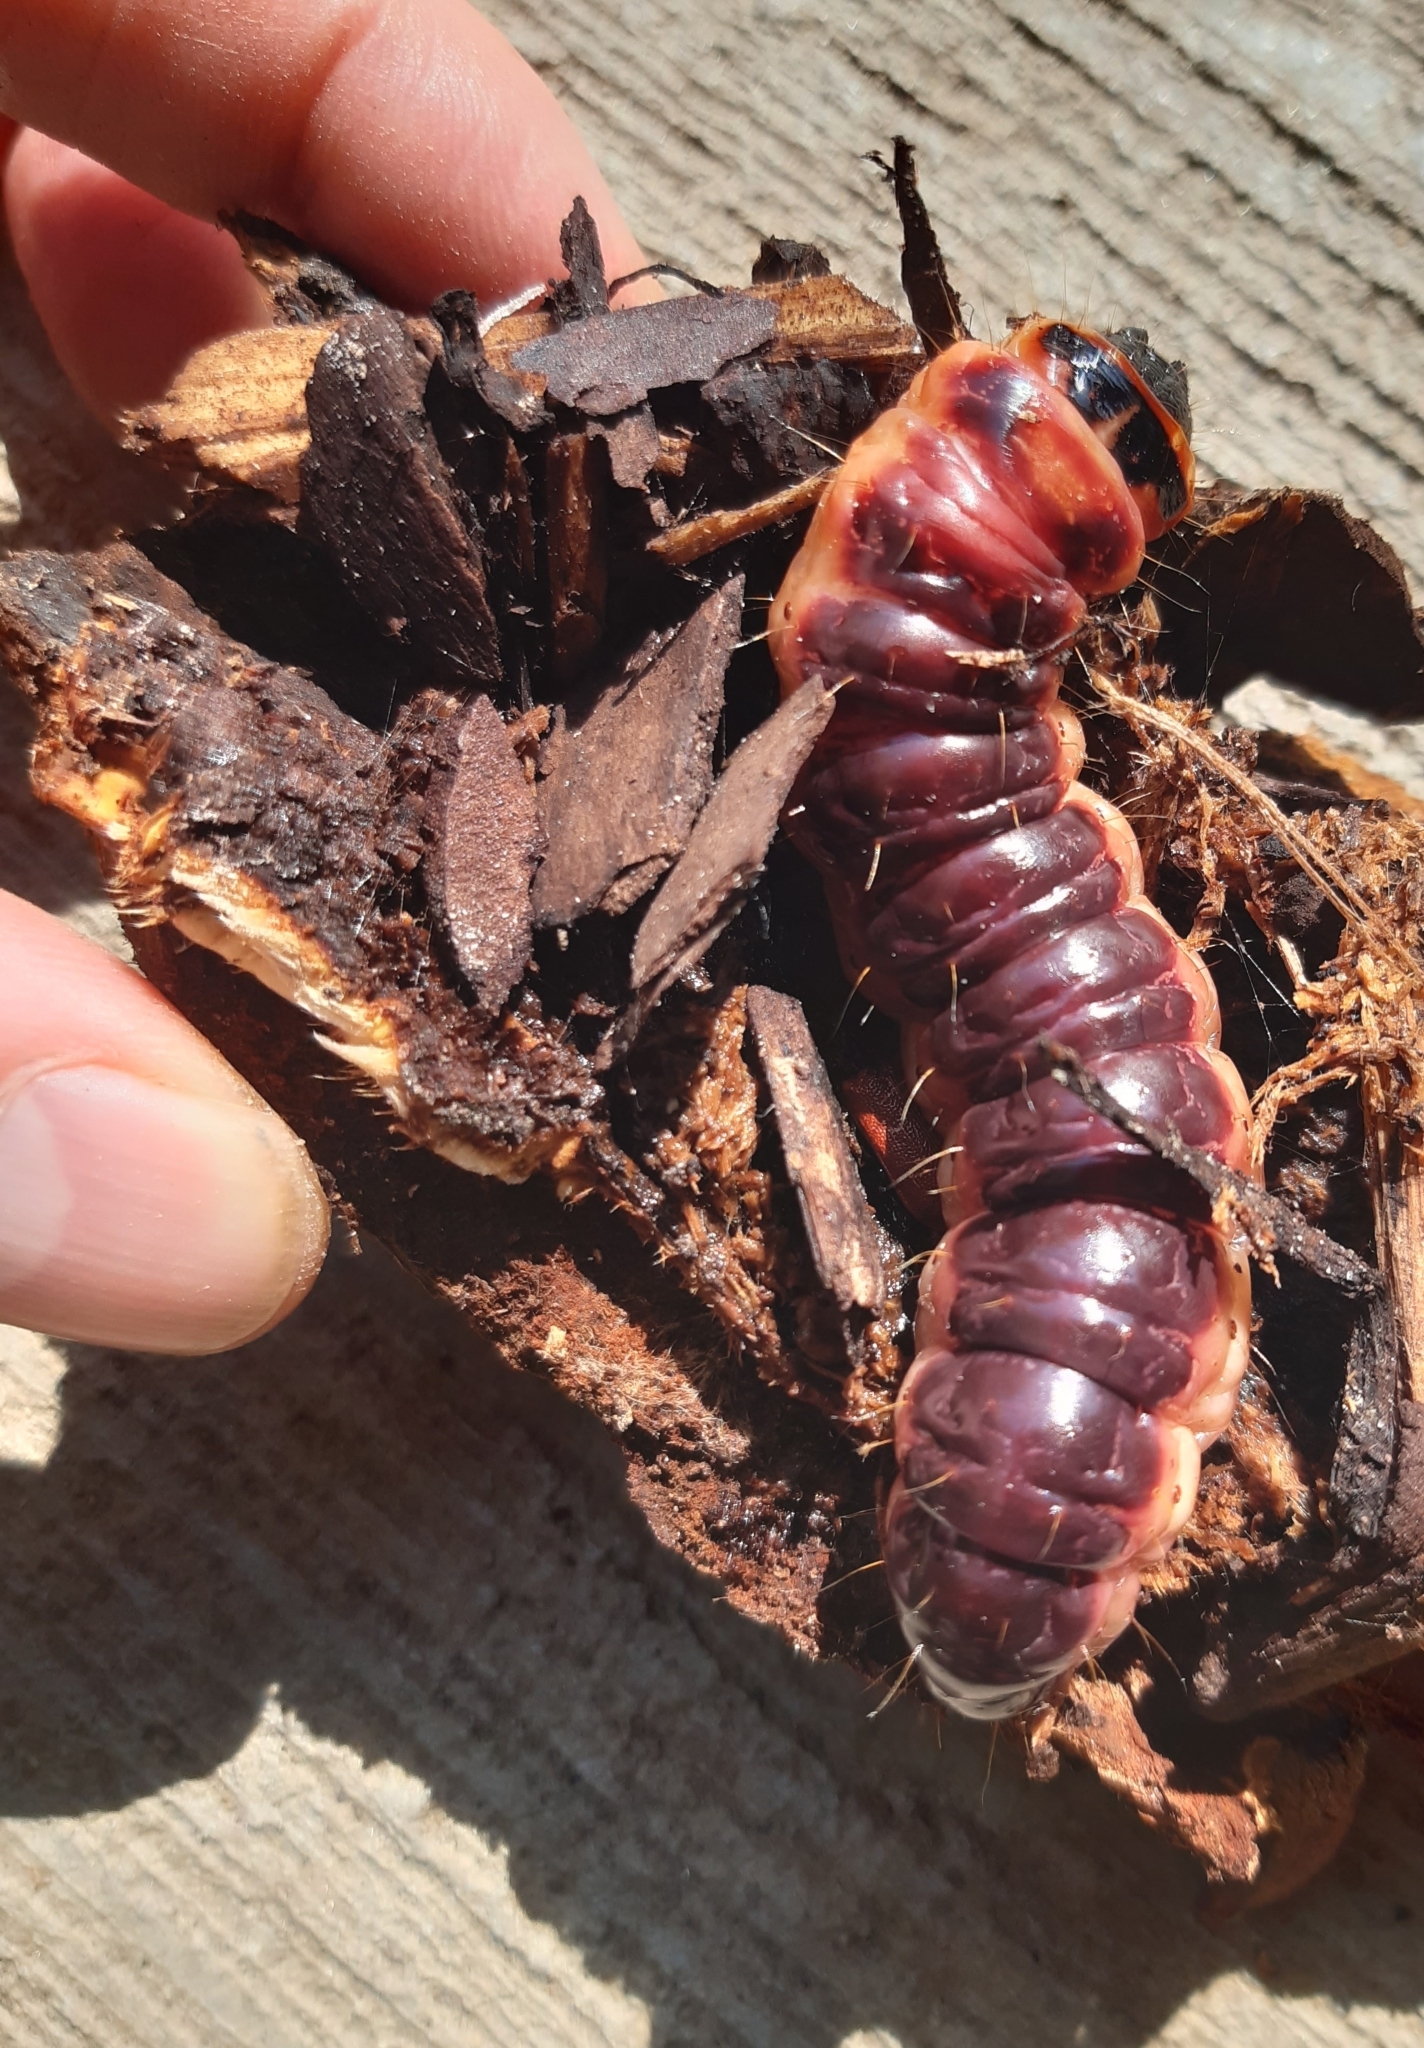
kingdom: Animalia
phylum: Arthropoda
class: Insecta
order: Lepidoptera
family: Cossidae
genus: Cossus
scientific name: Cossus cossus
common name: Goat moth
